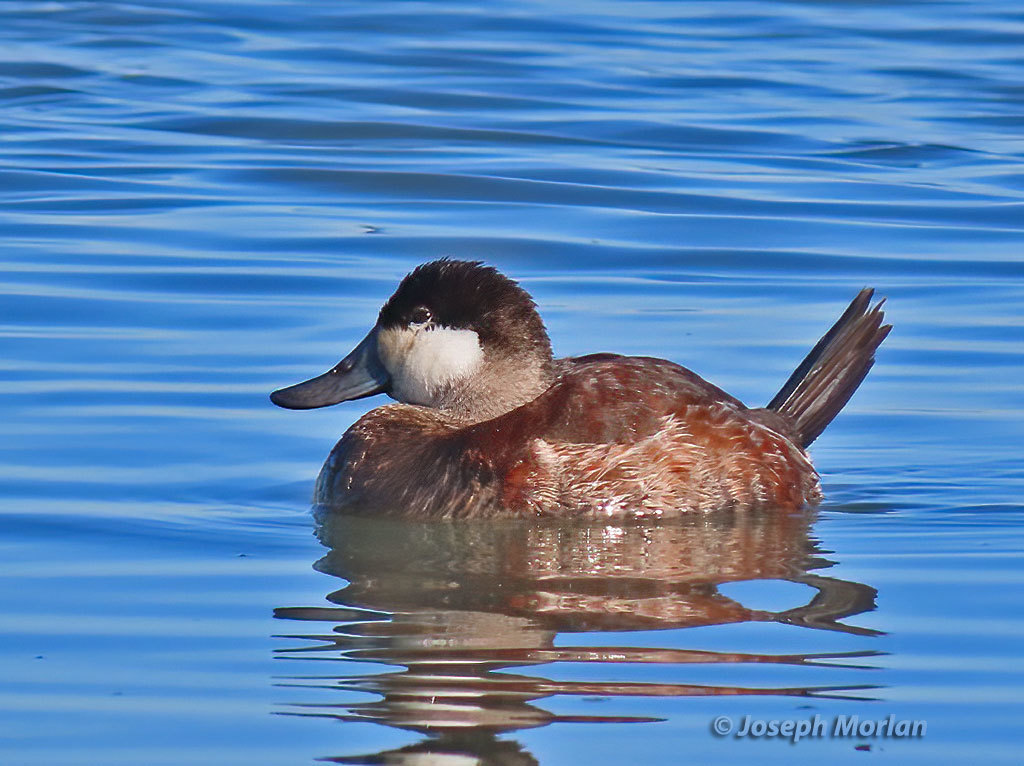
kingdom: Animalia
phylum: Chordata
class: Aves
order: Anseriformes
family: Anatidae
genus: Oxyura
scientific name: Oxyura jamaicensis
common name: Ruddy duck
